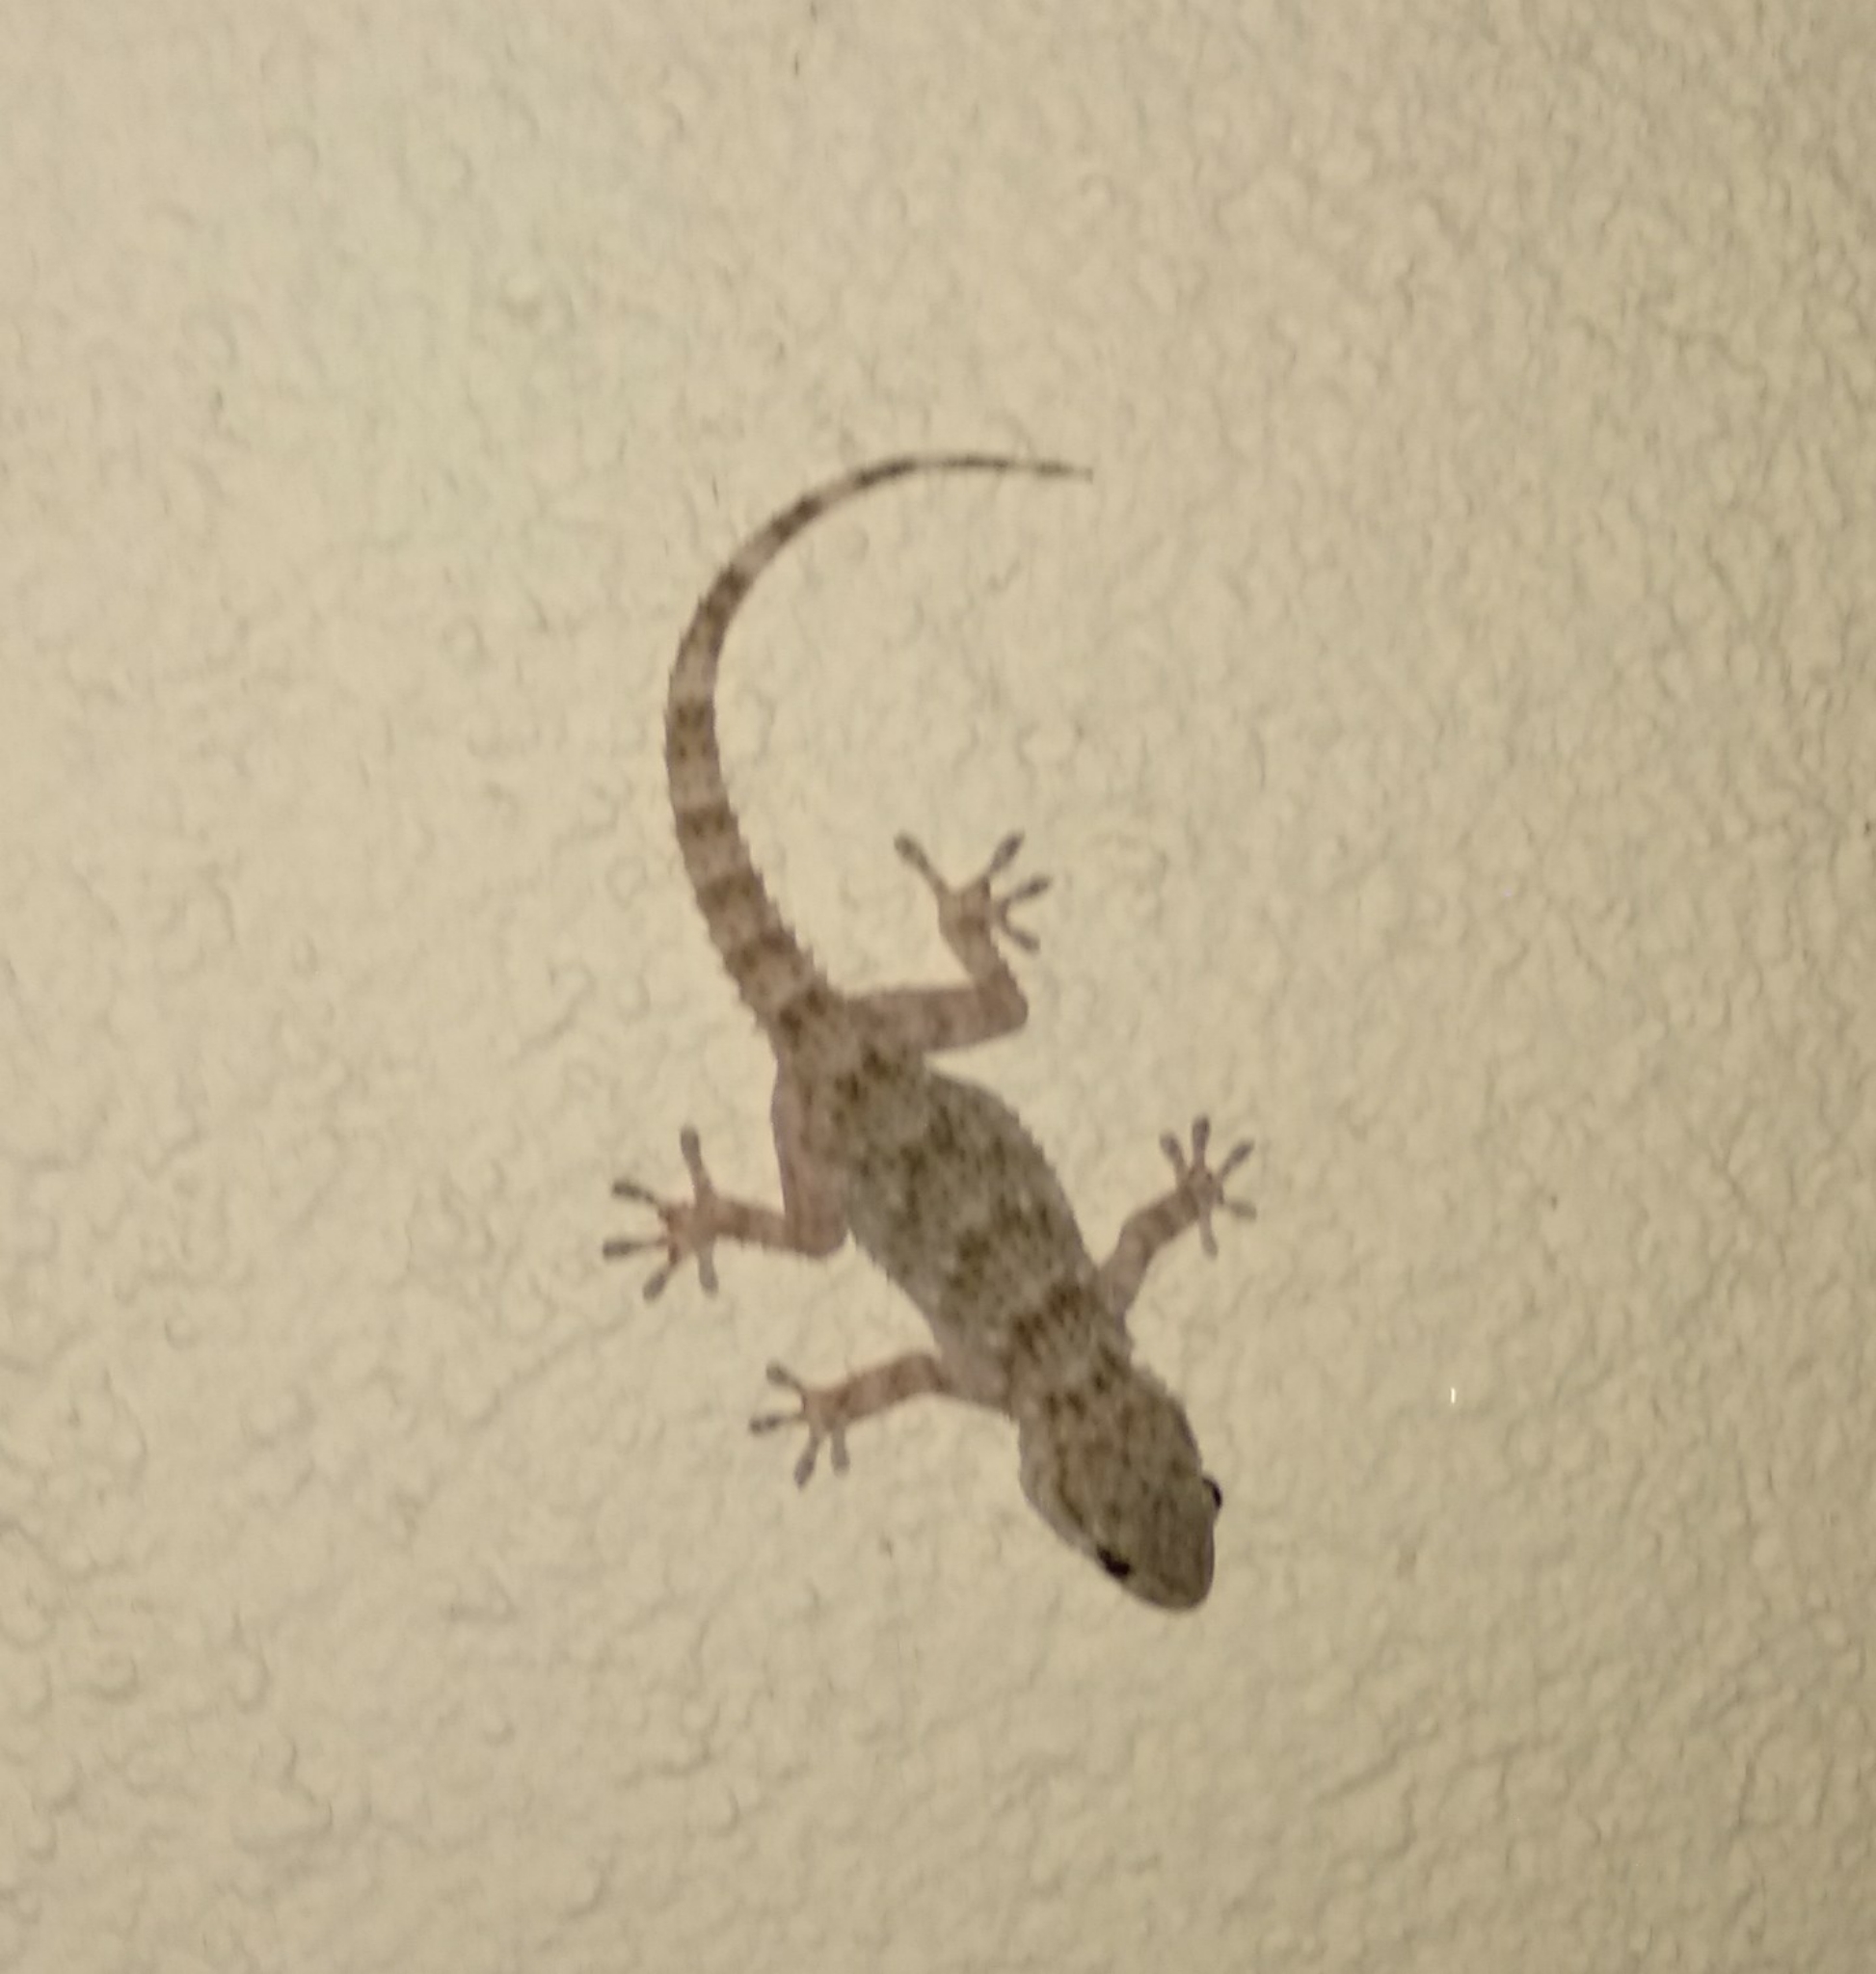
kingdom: Animalia
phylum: Chordata
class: Squamata
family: Phyllodactylidae
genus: Tarentola
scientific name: Tarentola mauritanica
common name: Moorish gecko
